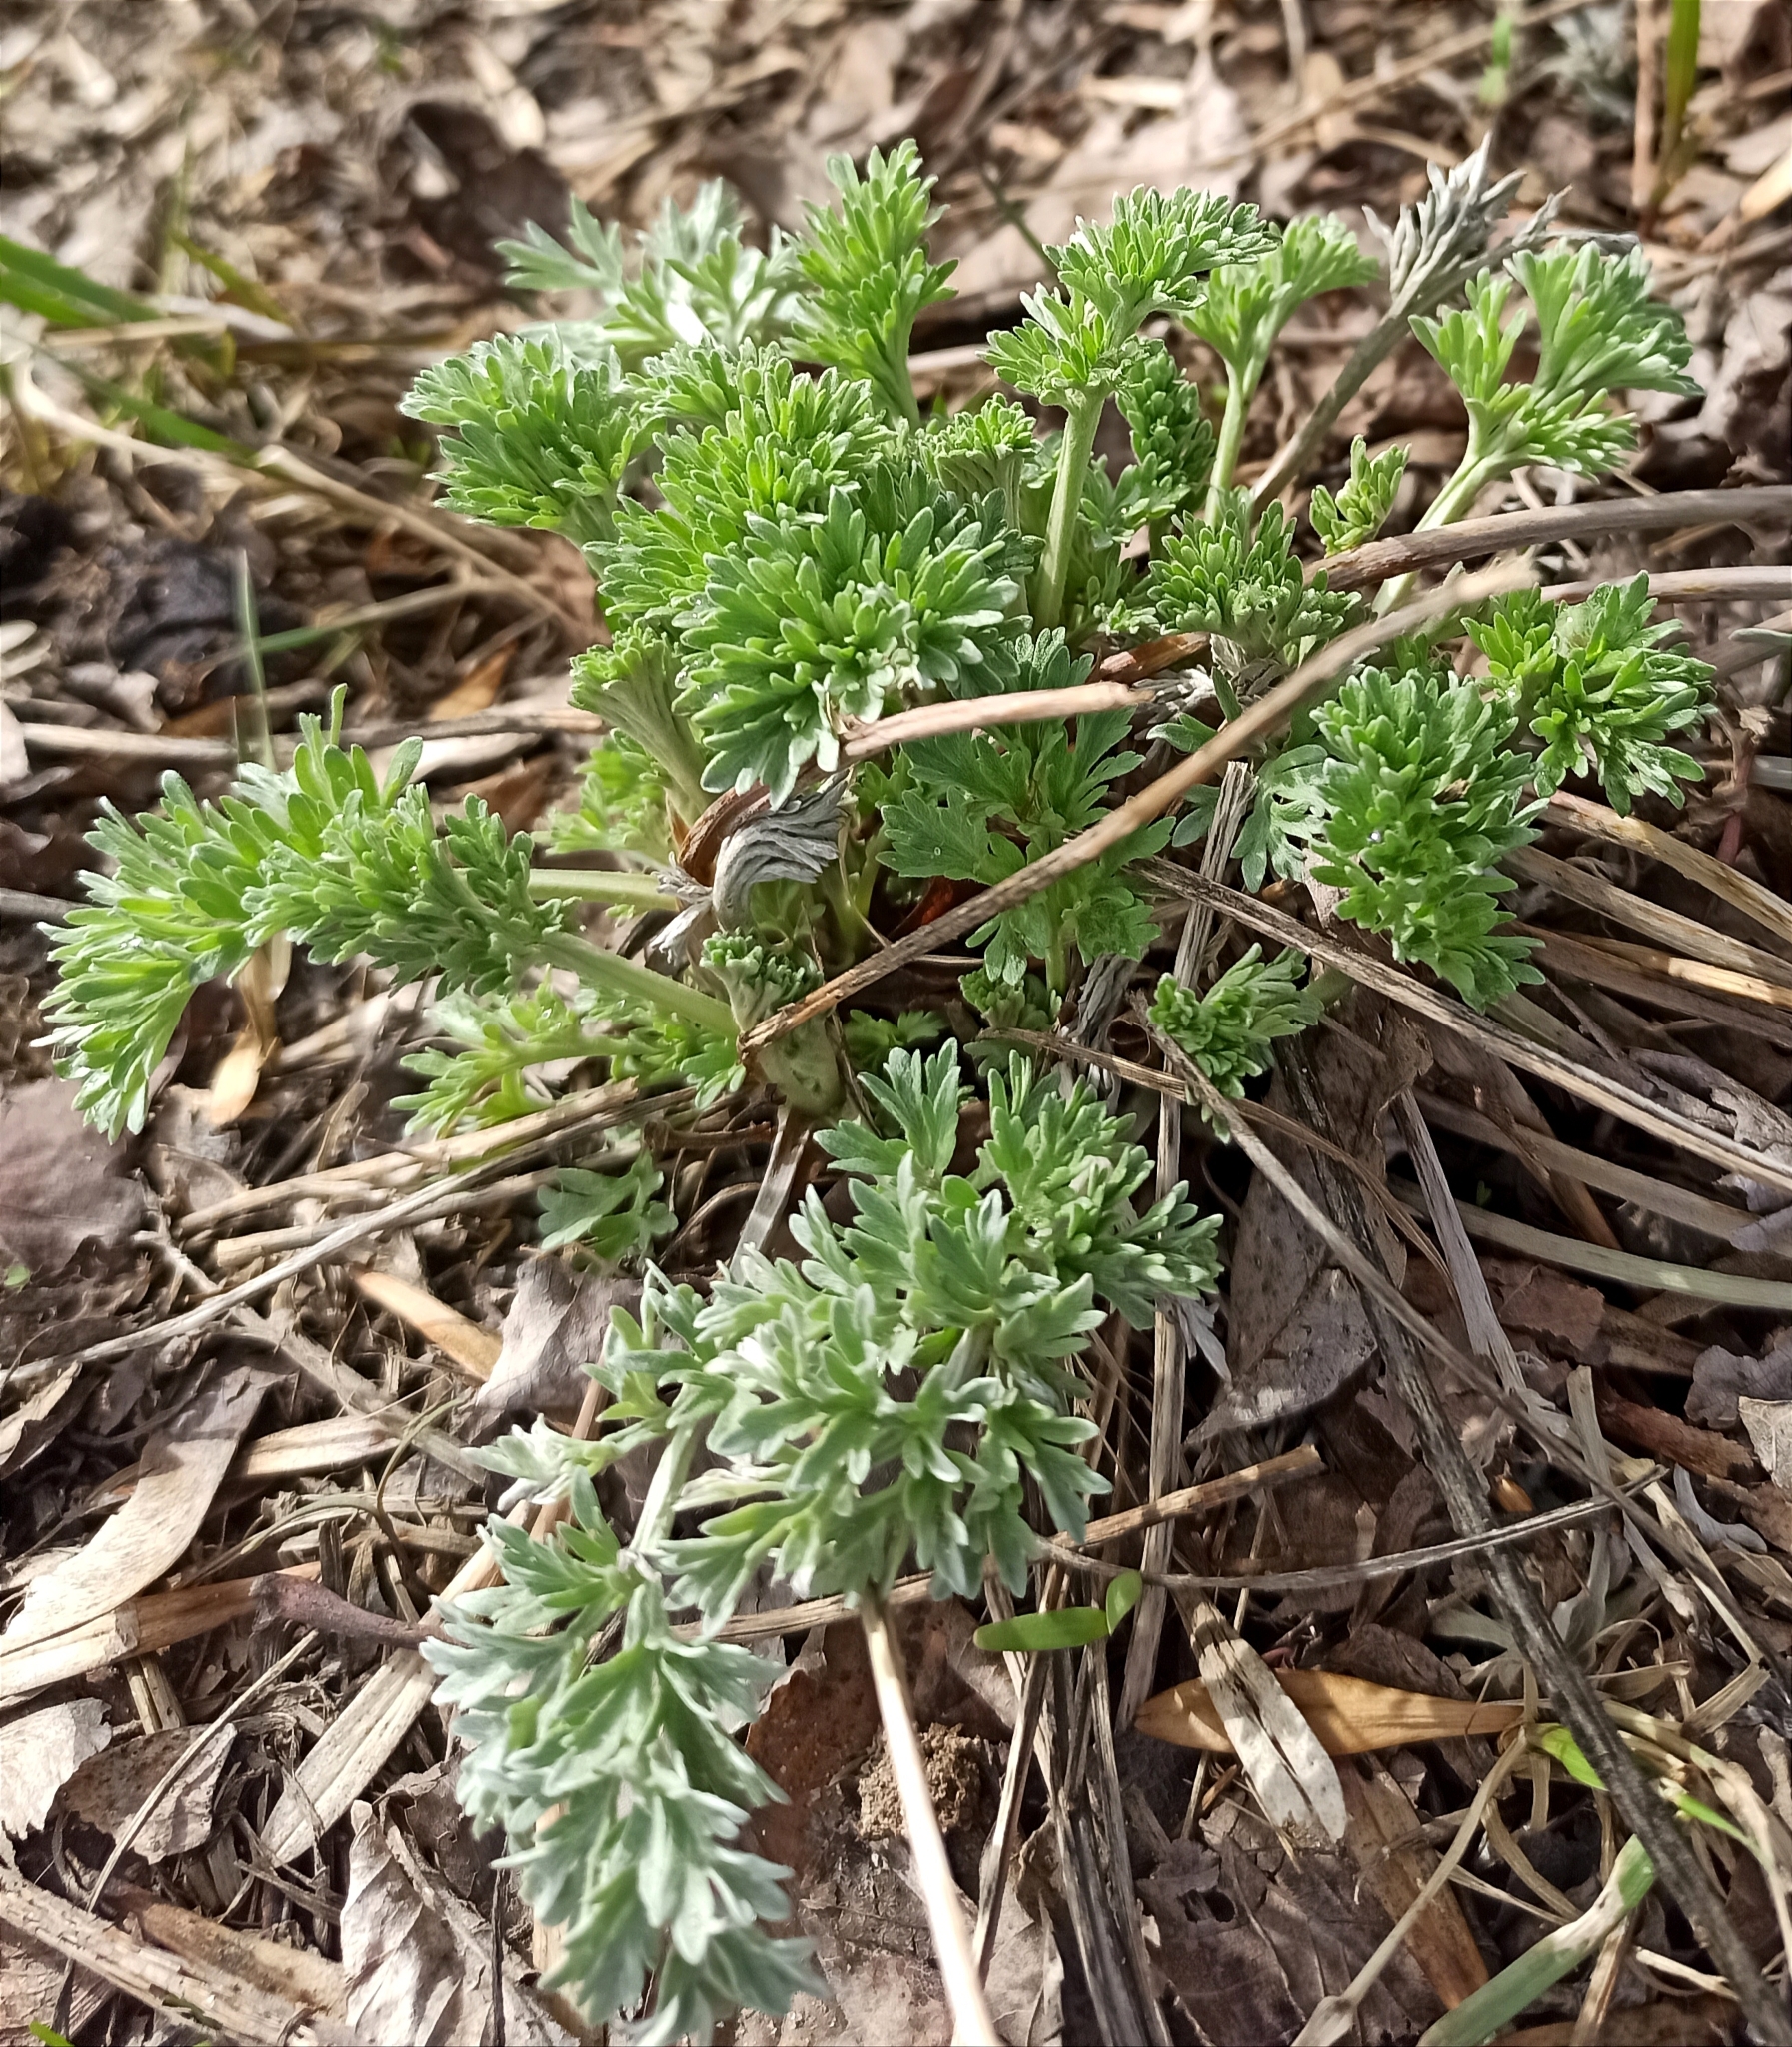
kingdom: Plantae
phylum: Tracheophyta
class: Magnoliopsida
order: Asterales
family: Asteraceae
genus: Artemisia
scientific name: Artemisia absinthium
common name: Wormwood
